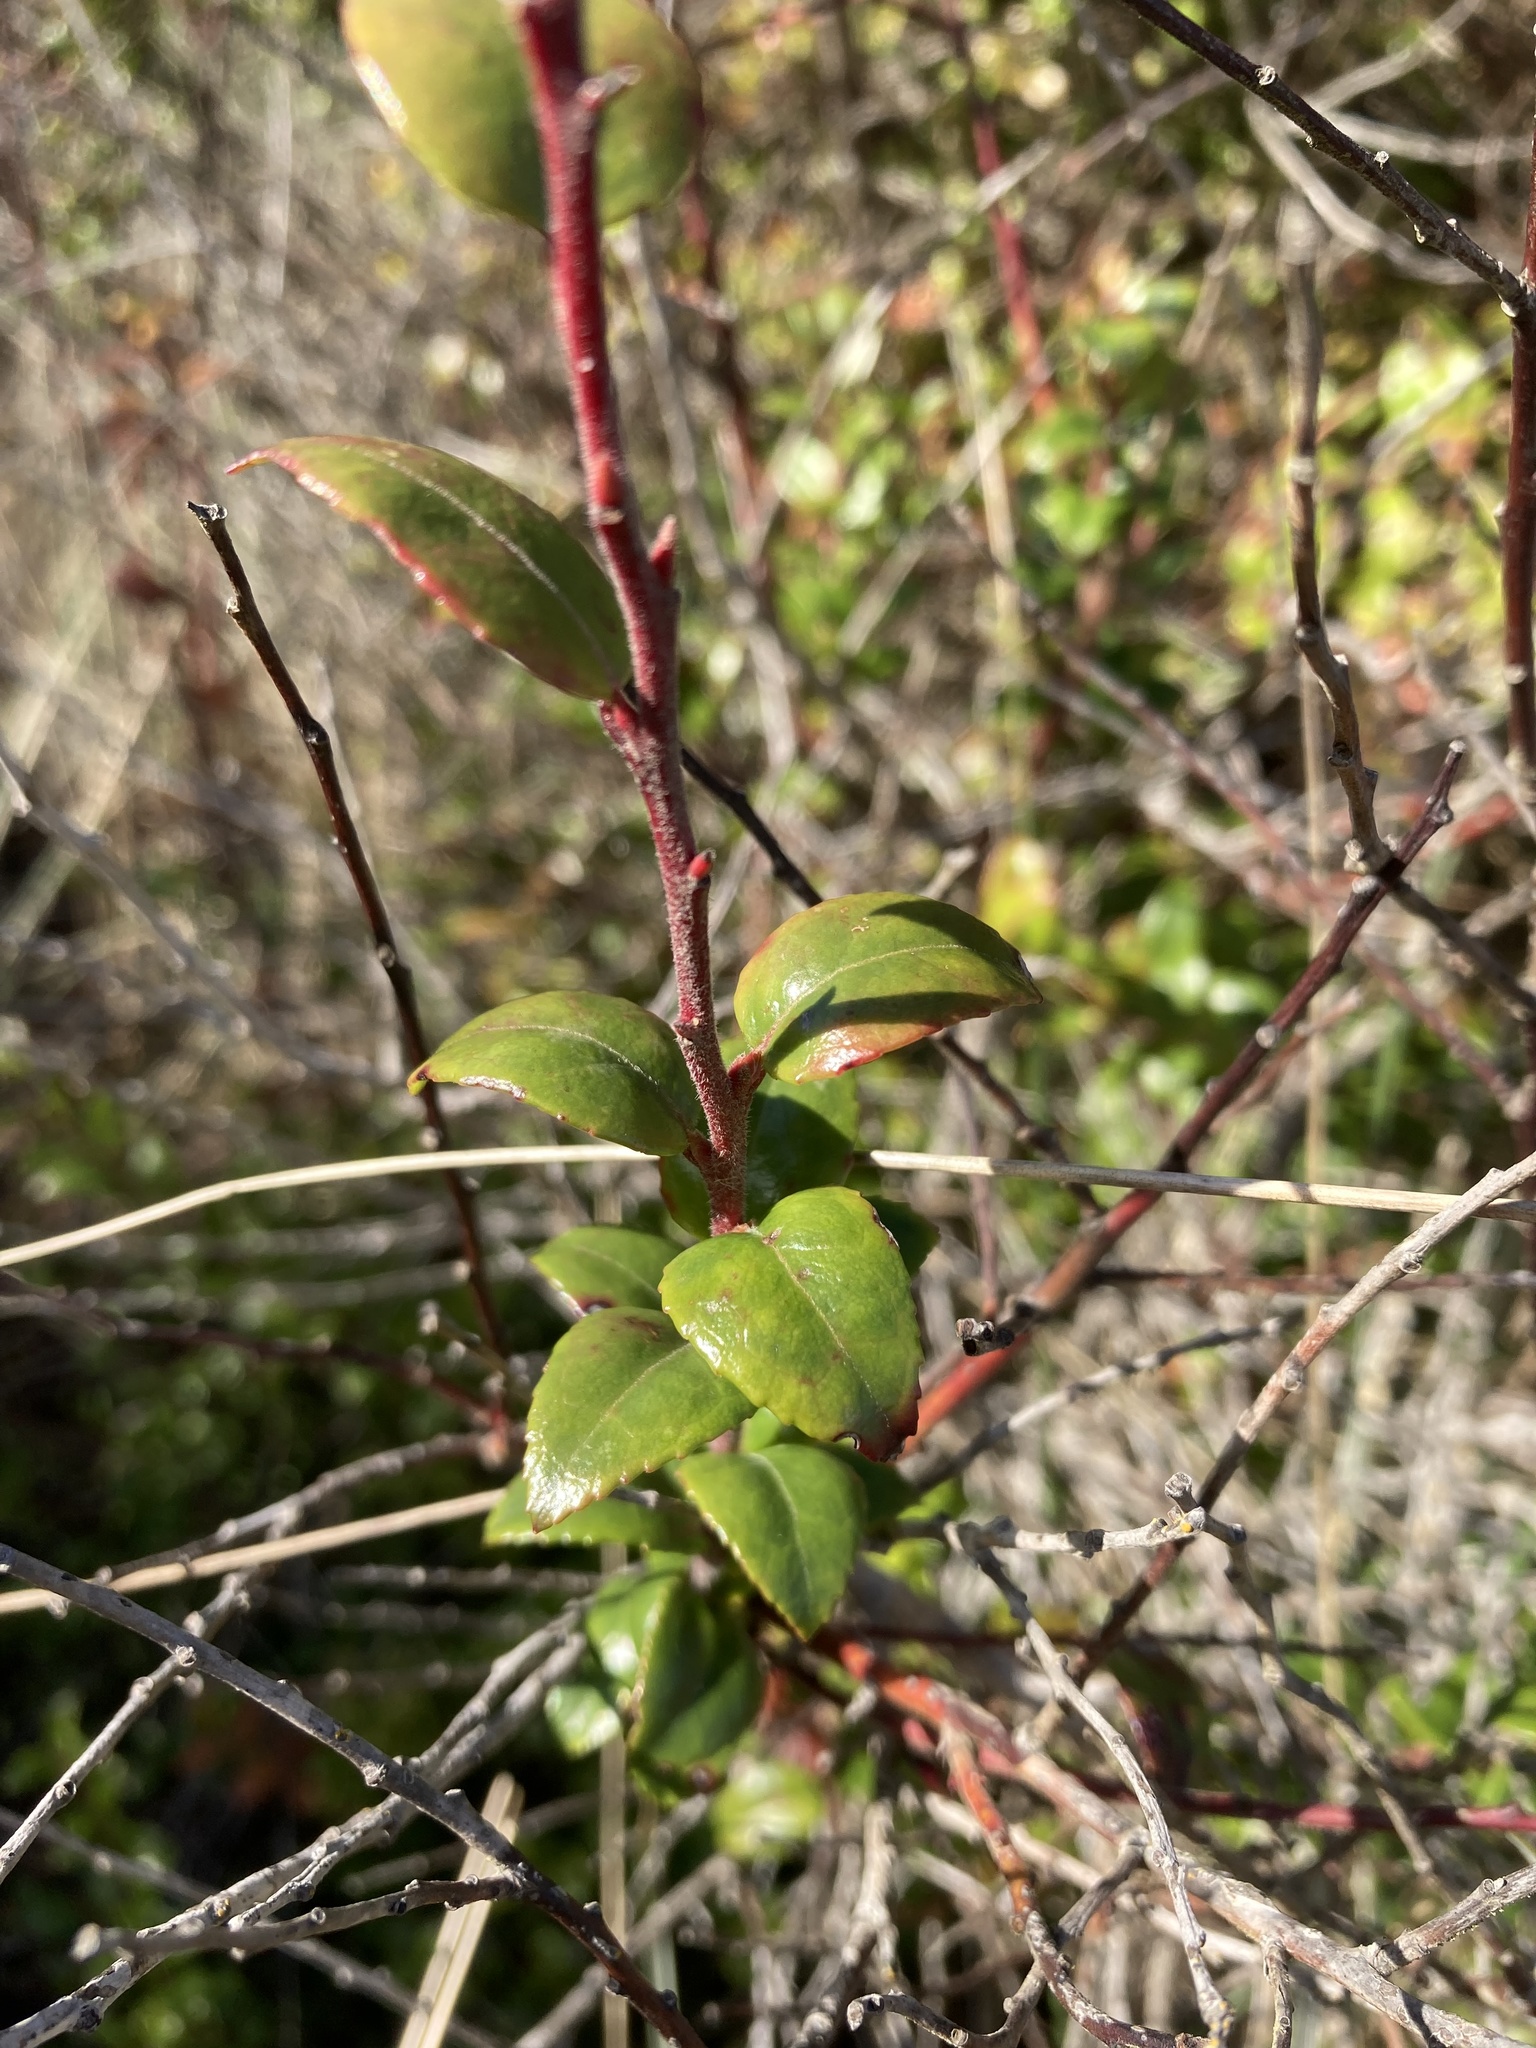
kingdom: Plantae
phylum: Tracheophyta
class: Magnoliopsida
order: Ericales
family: Ericaceae
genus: Vaccinium
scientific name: Vaccinium ovatum
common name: California-huckleberry
